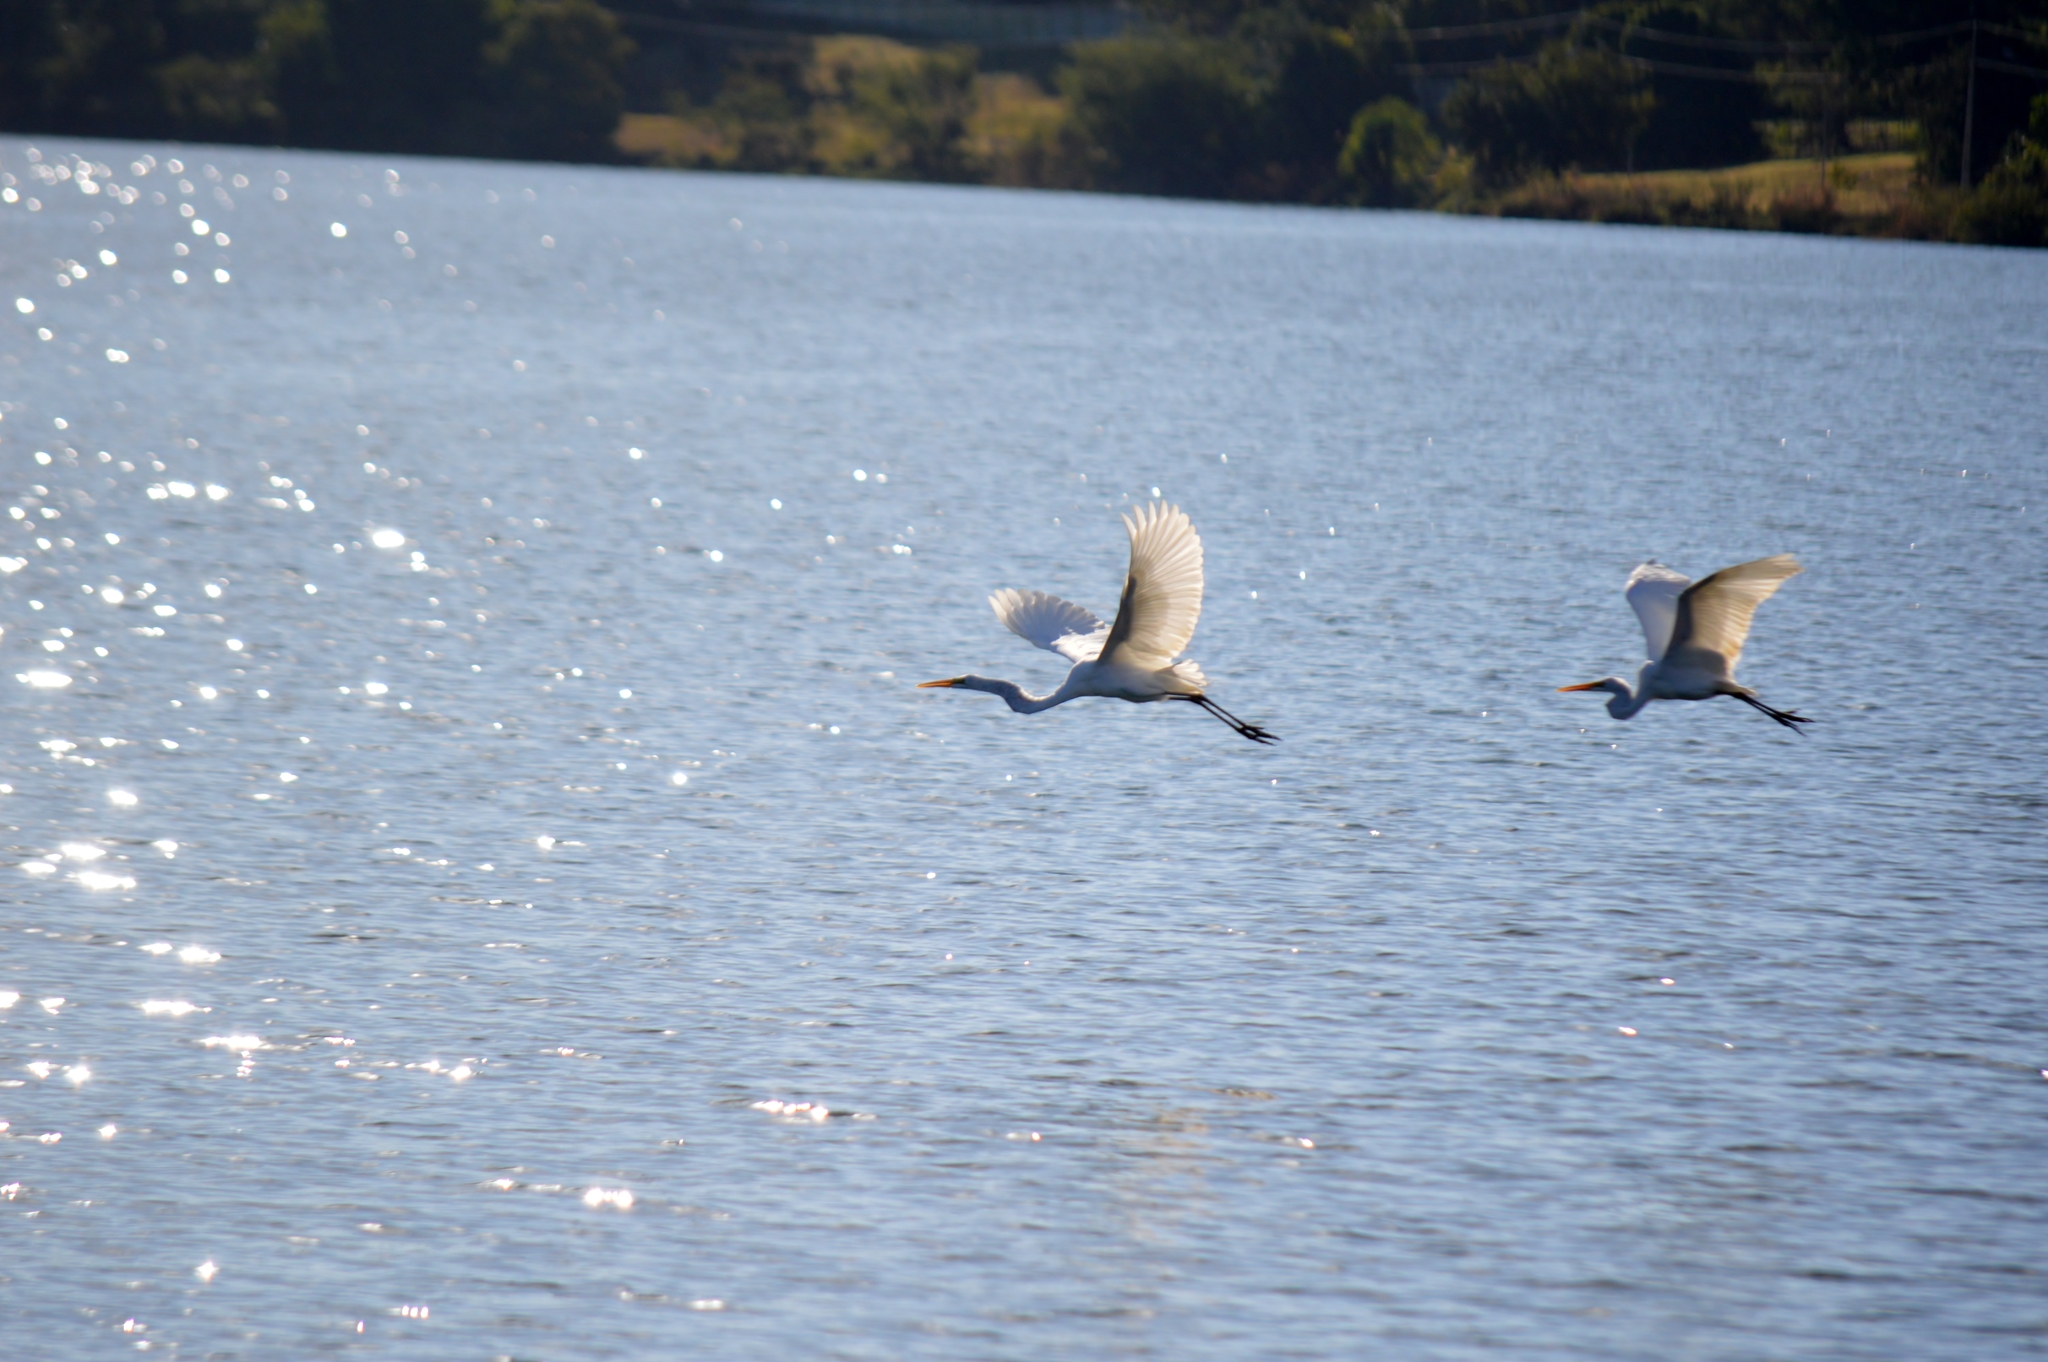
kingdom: Animalia
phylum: Chordata
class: Aves
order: Pelecaniformes
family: Ardeidae
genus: Ardea
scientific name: Ardea alba
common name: Great egret
